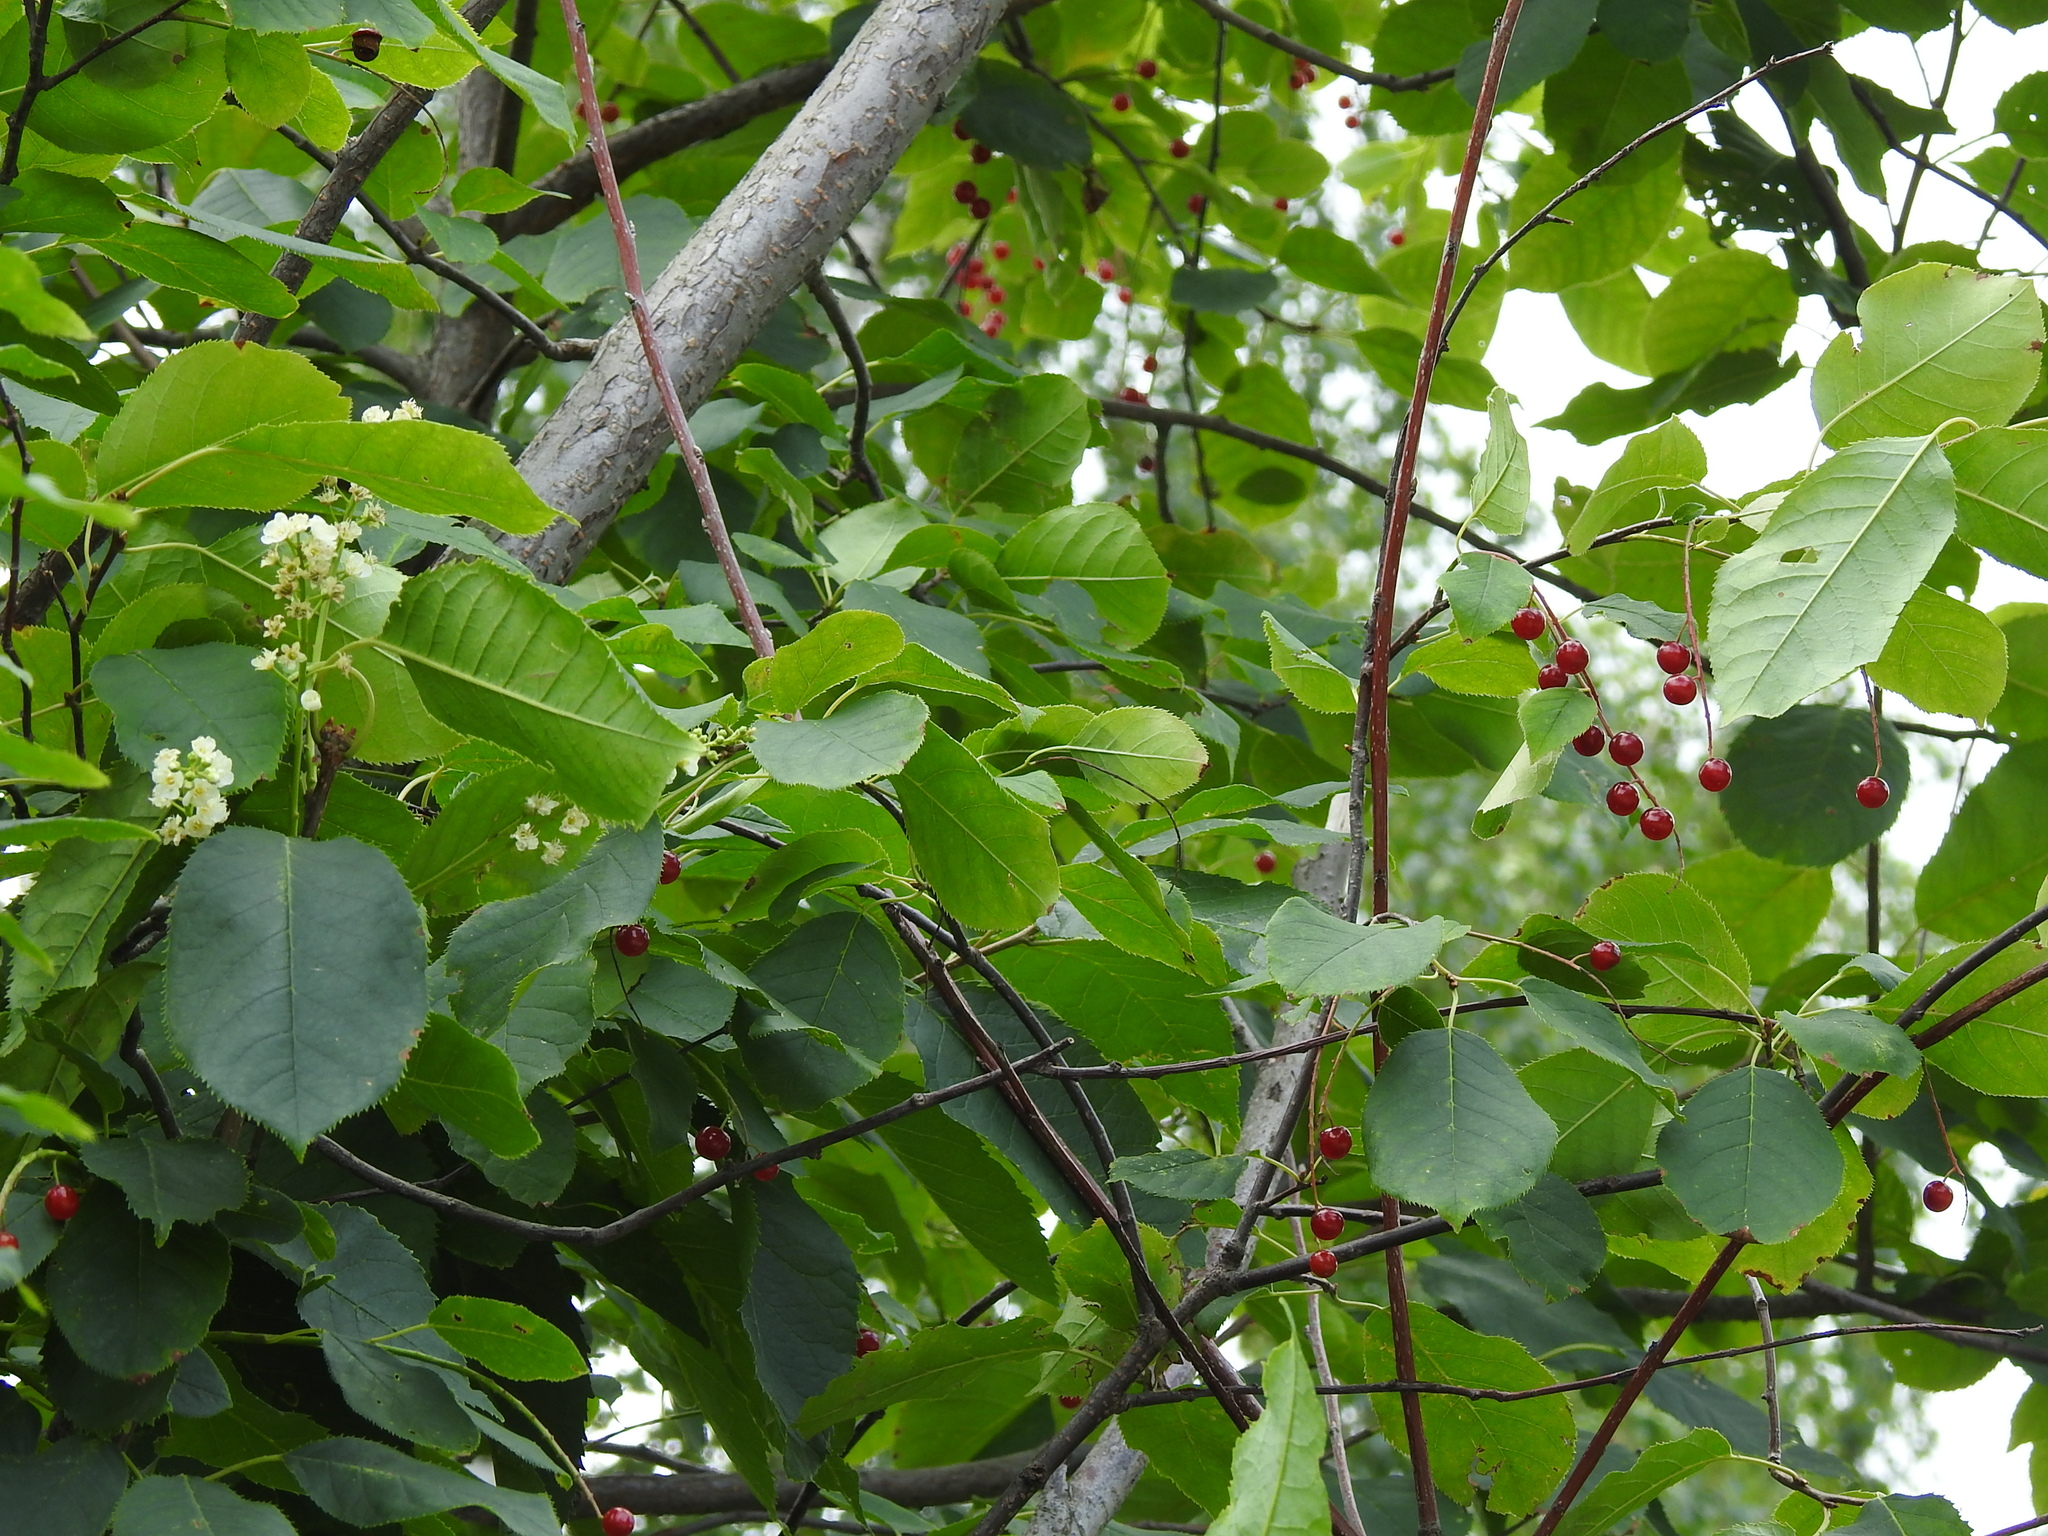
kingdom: Plantae
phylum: Tracheophyta
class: Magnoliopsida
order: Rosales
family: Rosaceae
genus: Prunus
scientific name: Prunus virginiana
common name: Chokecherry
